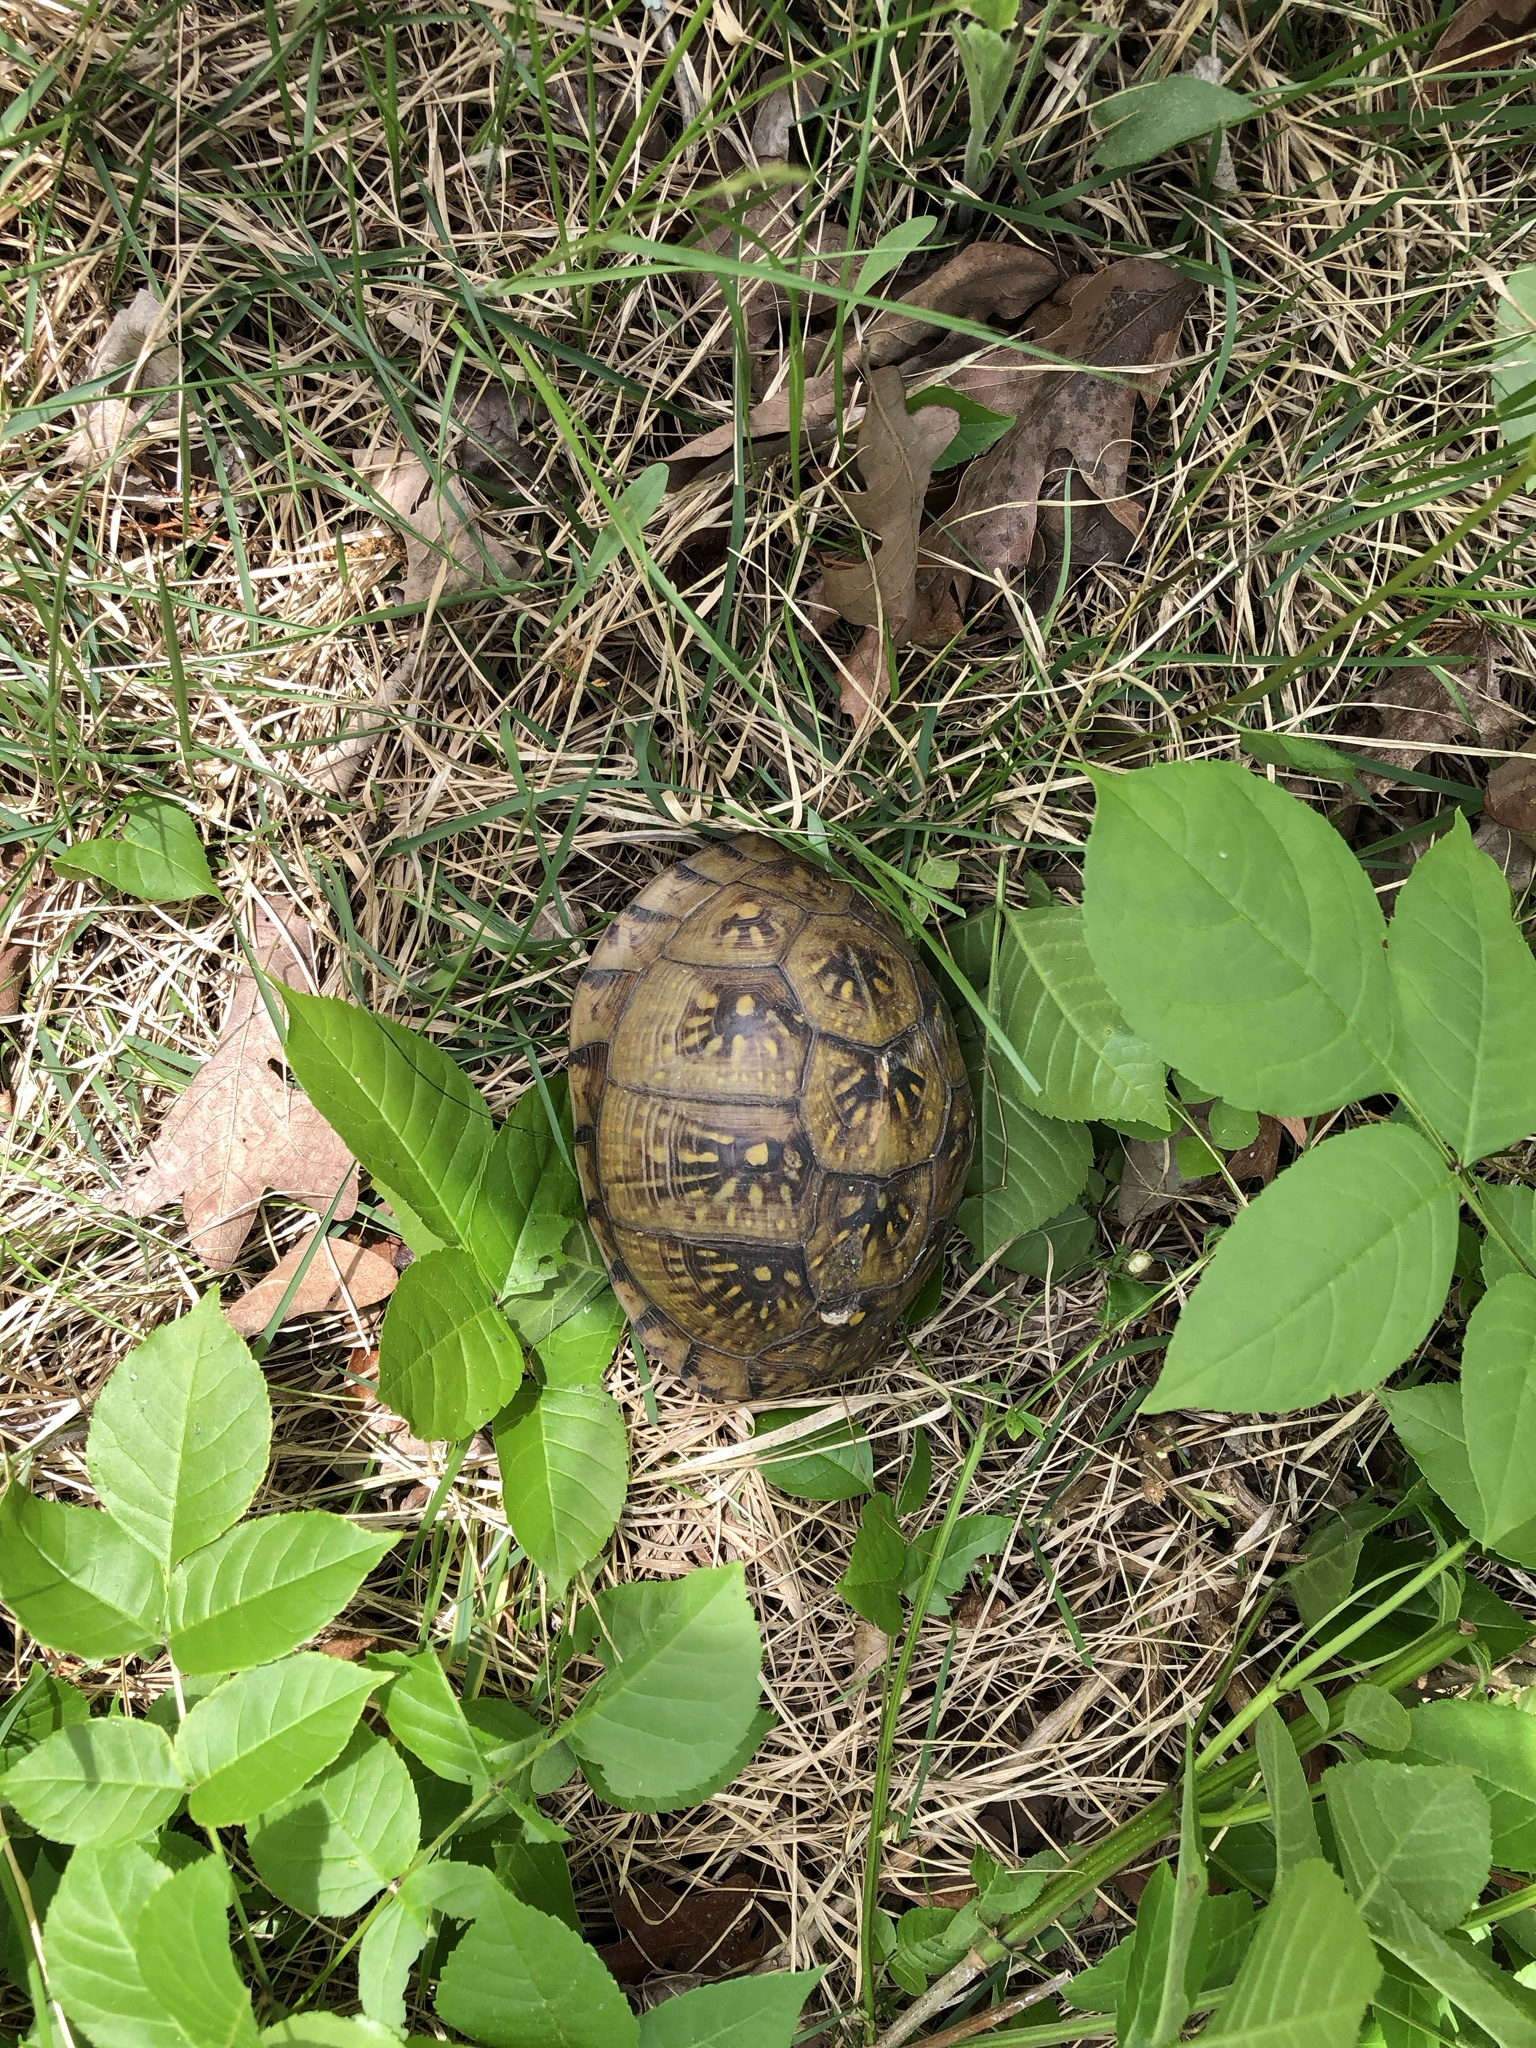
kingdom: Animalia
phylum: Chordata
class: Testudines
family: Emydidae
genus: Terrapene
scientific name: Terrapene carolina
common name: Common box turtle
